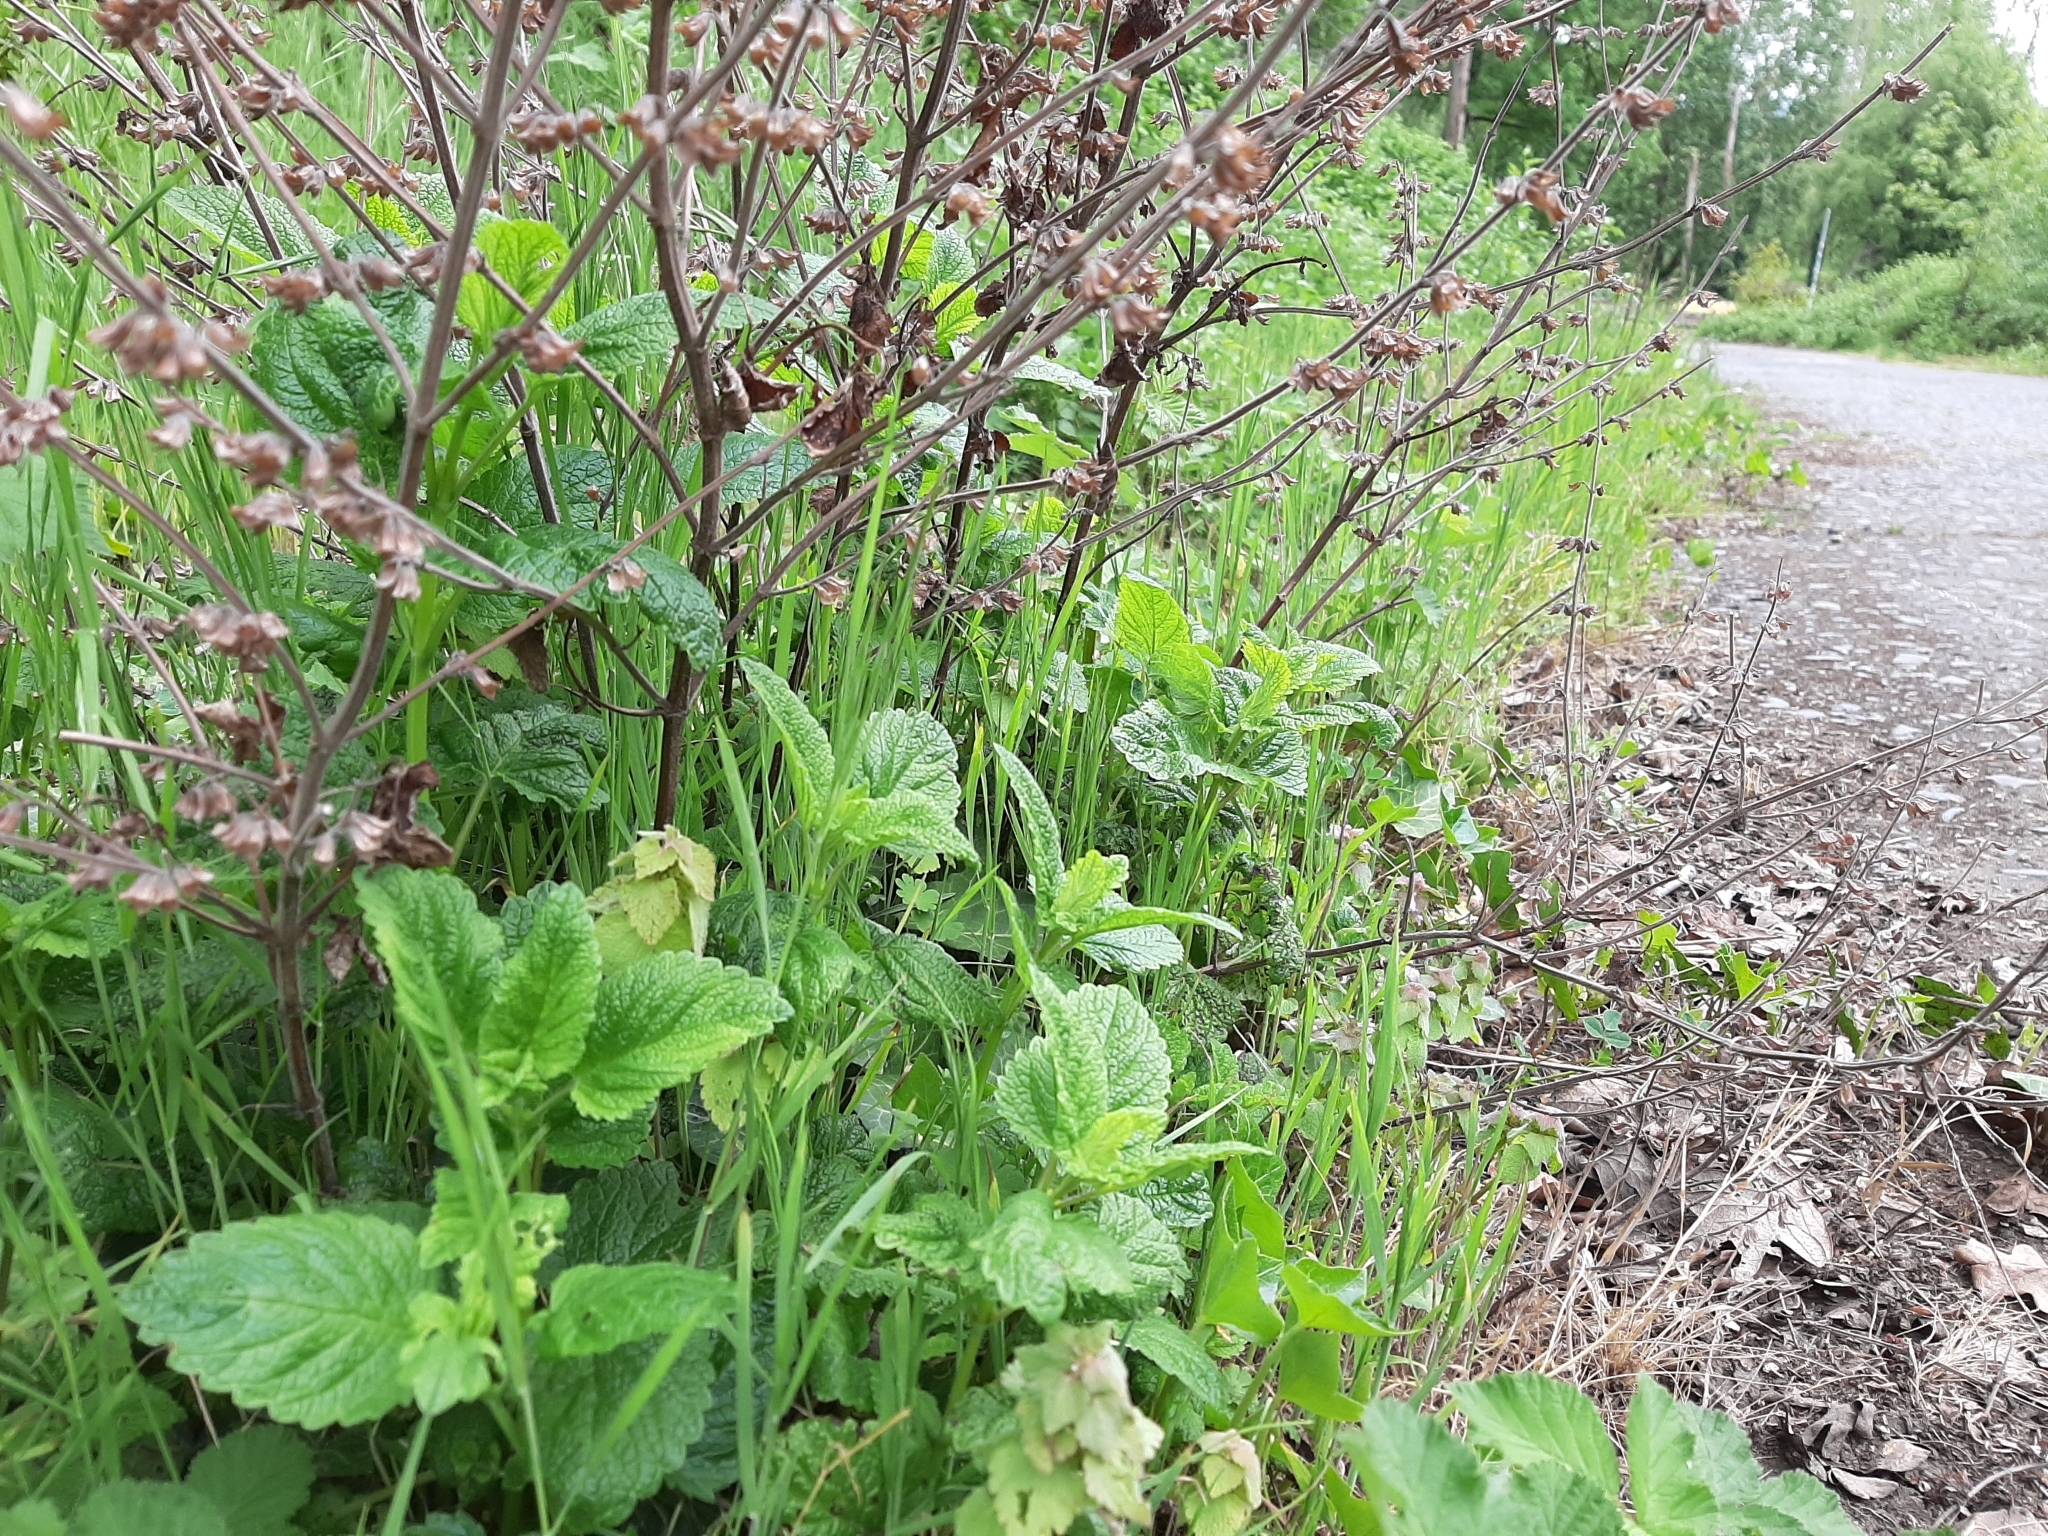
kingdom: Plantae
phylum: Tracheophyta
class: Magnoliopsida
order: Lamiales
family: Lamiaceae
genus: Melissa
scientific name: Melissa officinalis
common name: Balm
